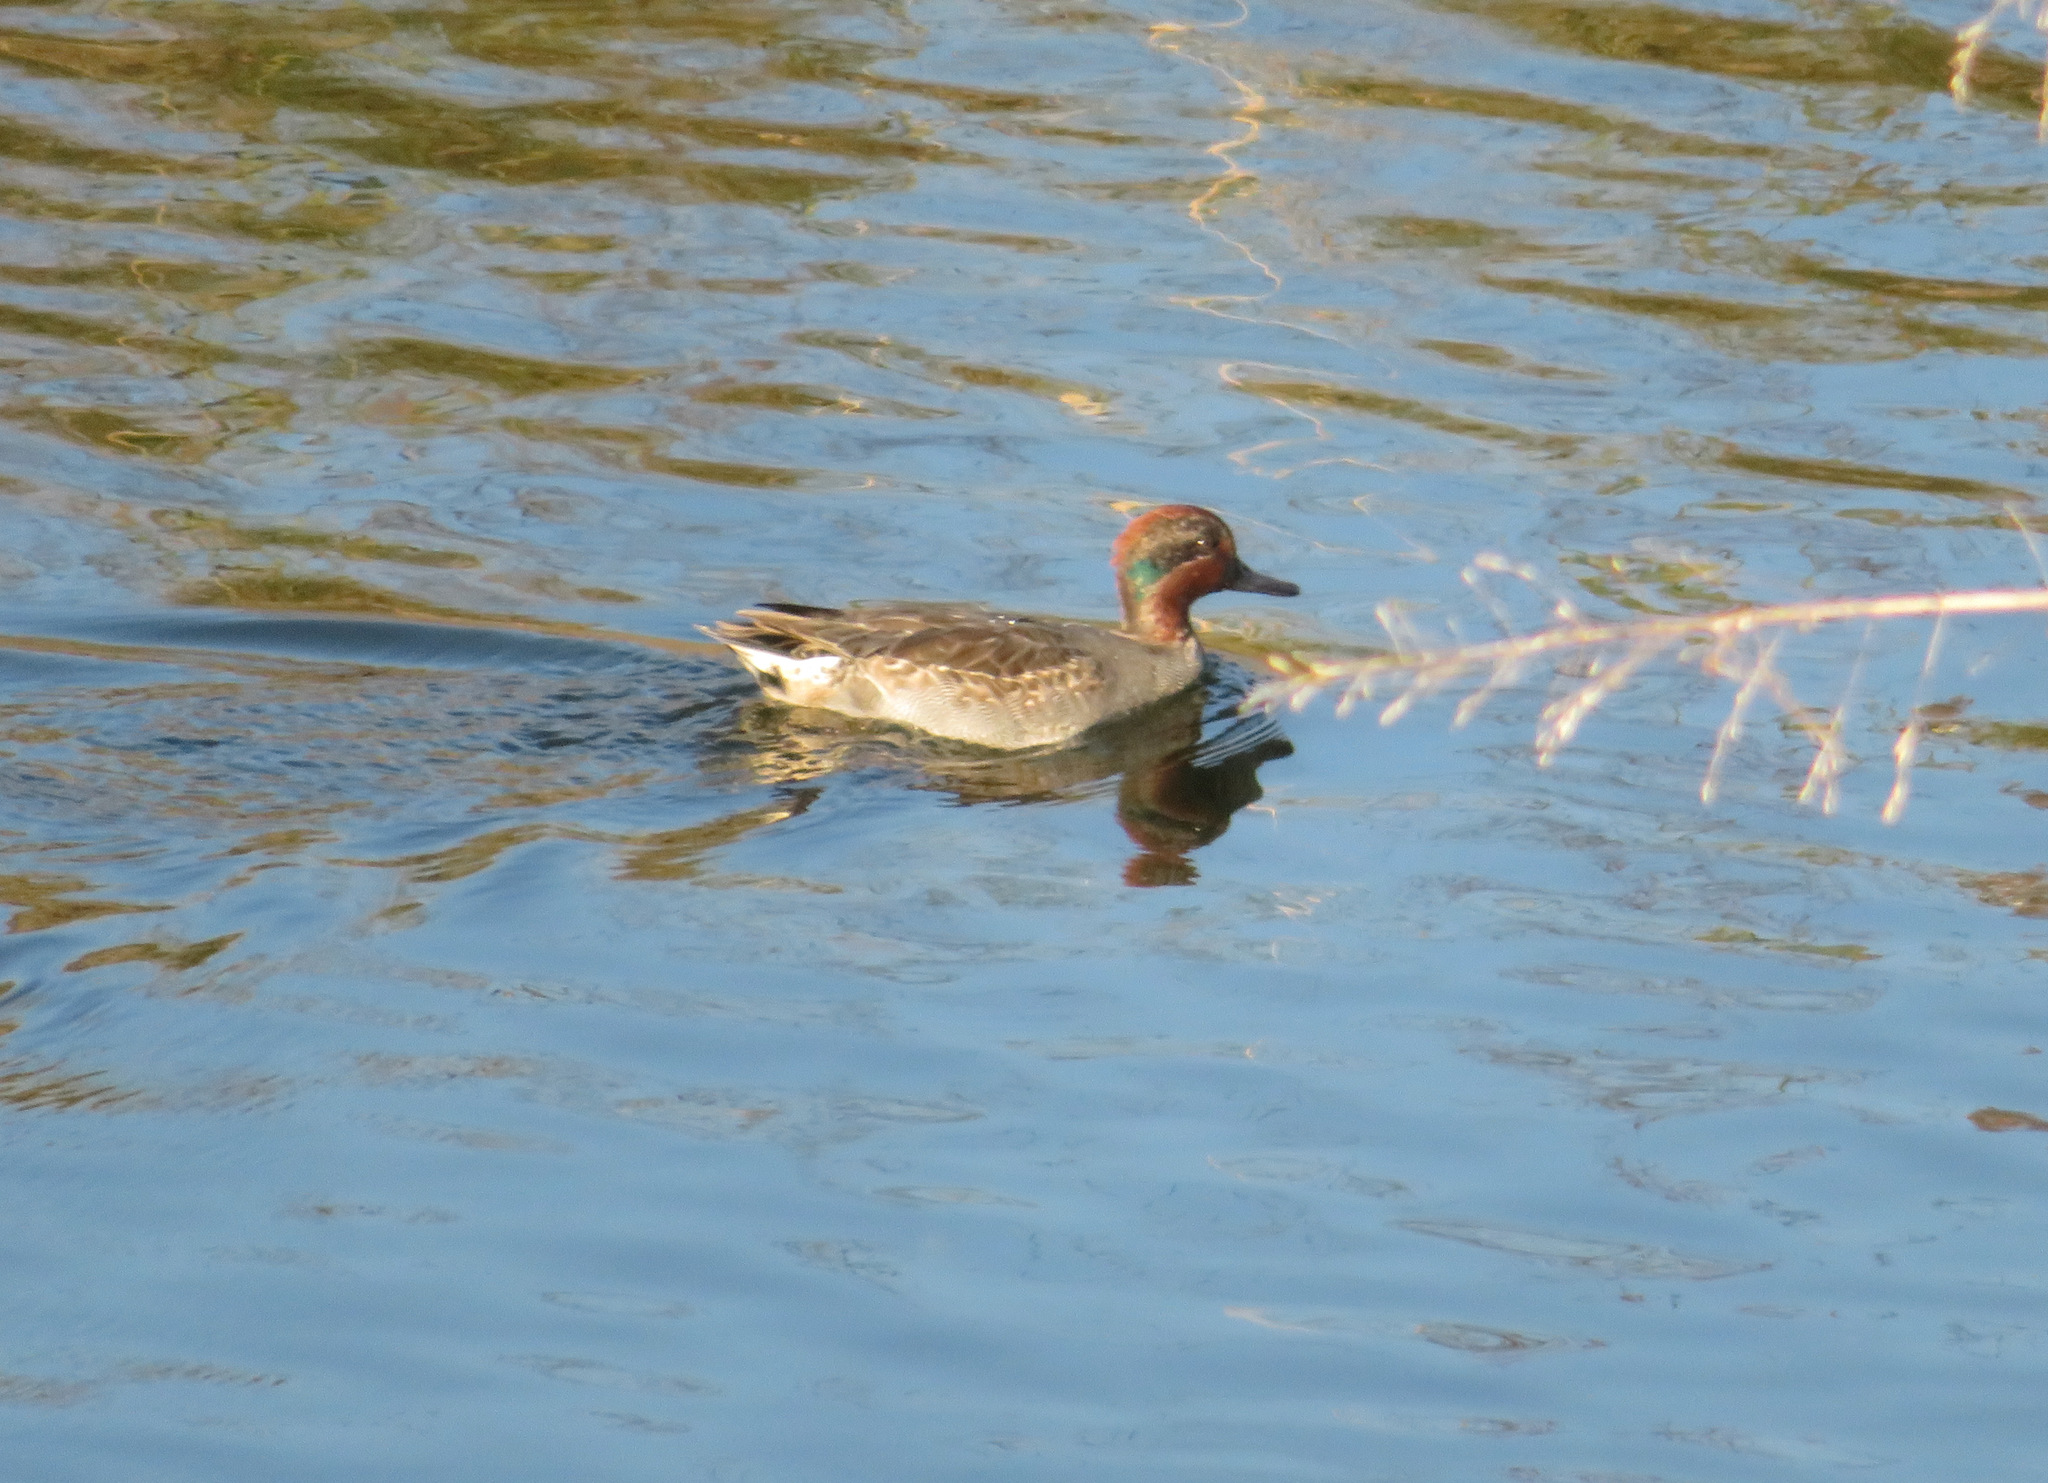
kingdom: Animalia
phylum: Chordata
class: Aves
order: Anseriformes
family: Anatidae
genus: Anas
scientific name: Anas crecca
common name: Eurasian teal
